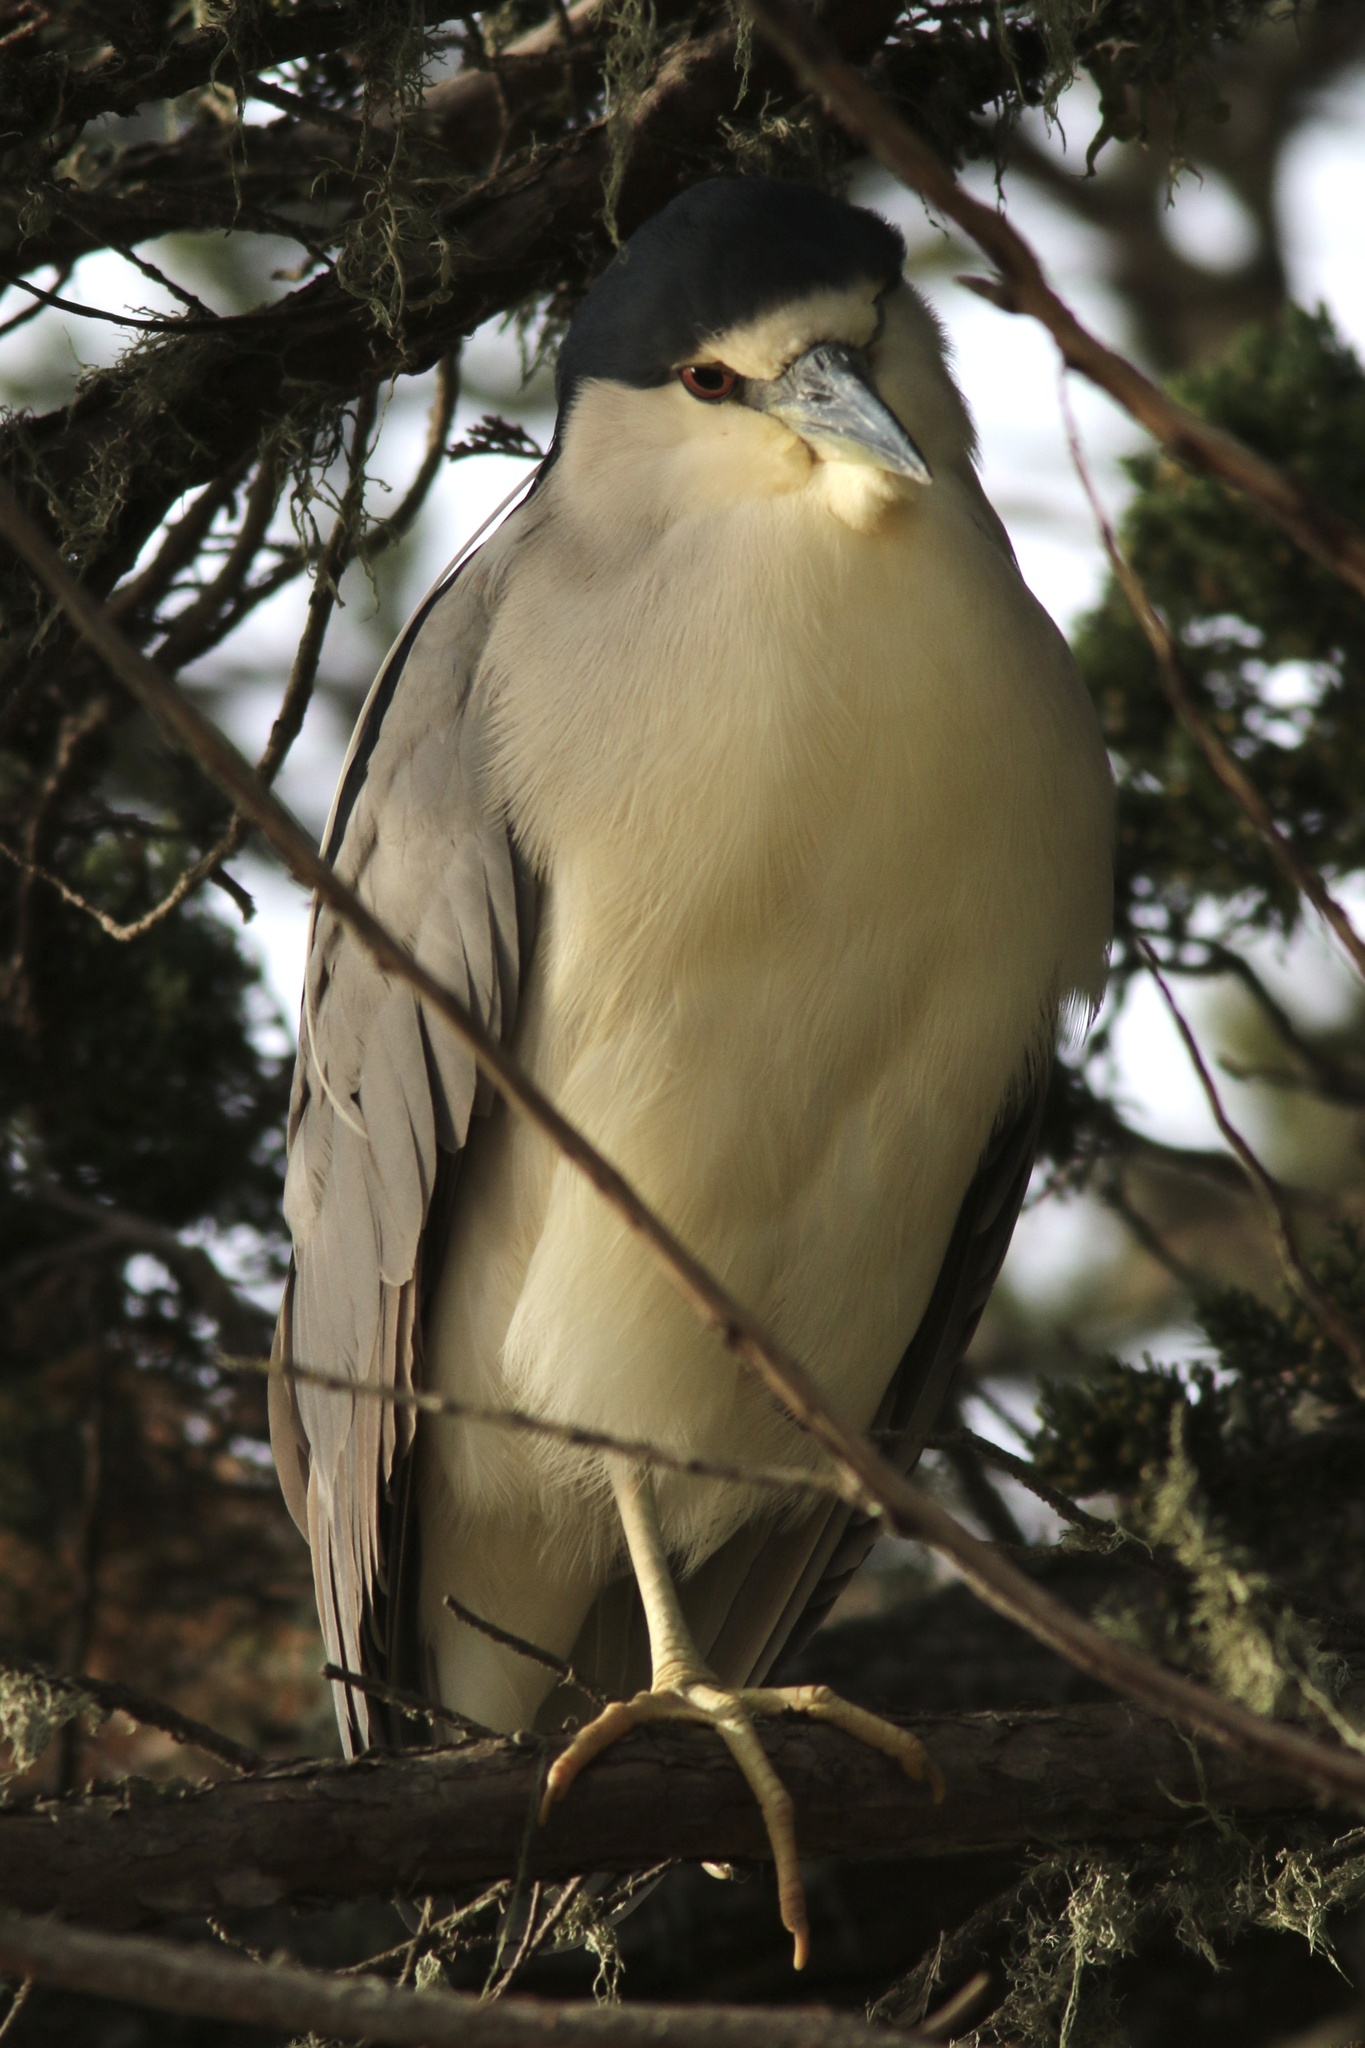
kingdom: Animalia
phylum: Chordata
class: Aves
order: Pelecaniformes
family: Ardeidae
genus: Nycticorax
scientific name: Nycticorax nycticorax
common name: Black-crowned night heron
